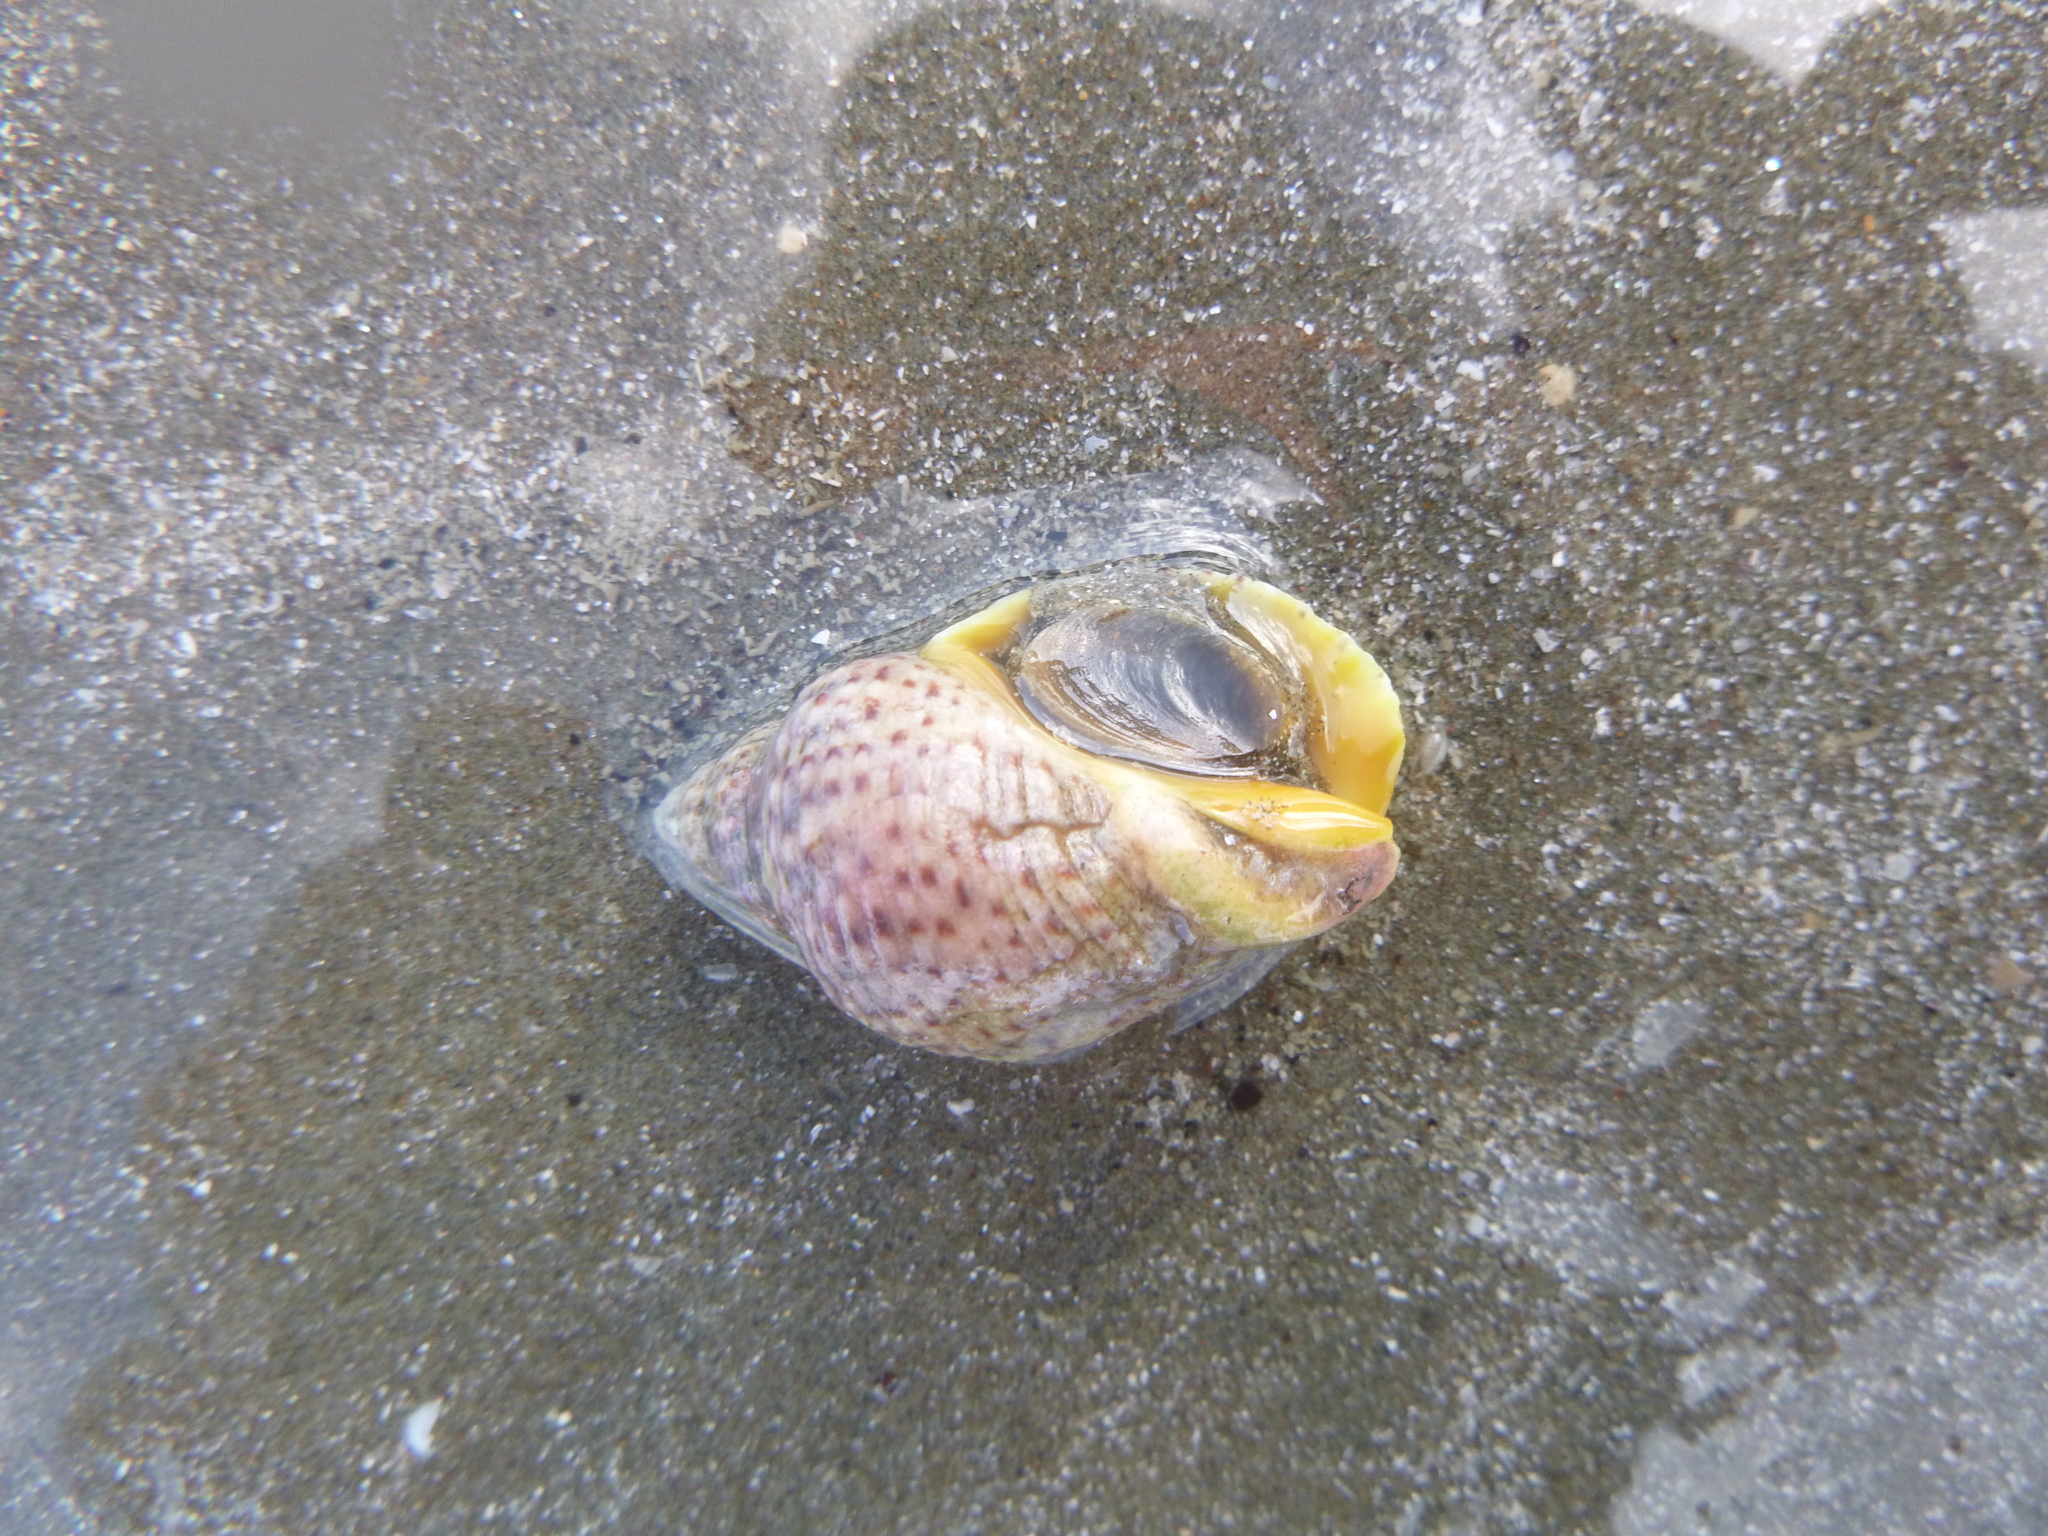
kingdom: Animalia
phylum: Mollusca
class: Gastropoda
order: Neogastropoda
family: Cominellidae
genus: Cominella
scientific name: Cominella adspersa
